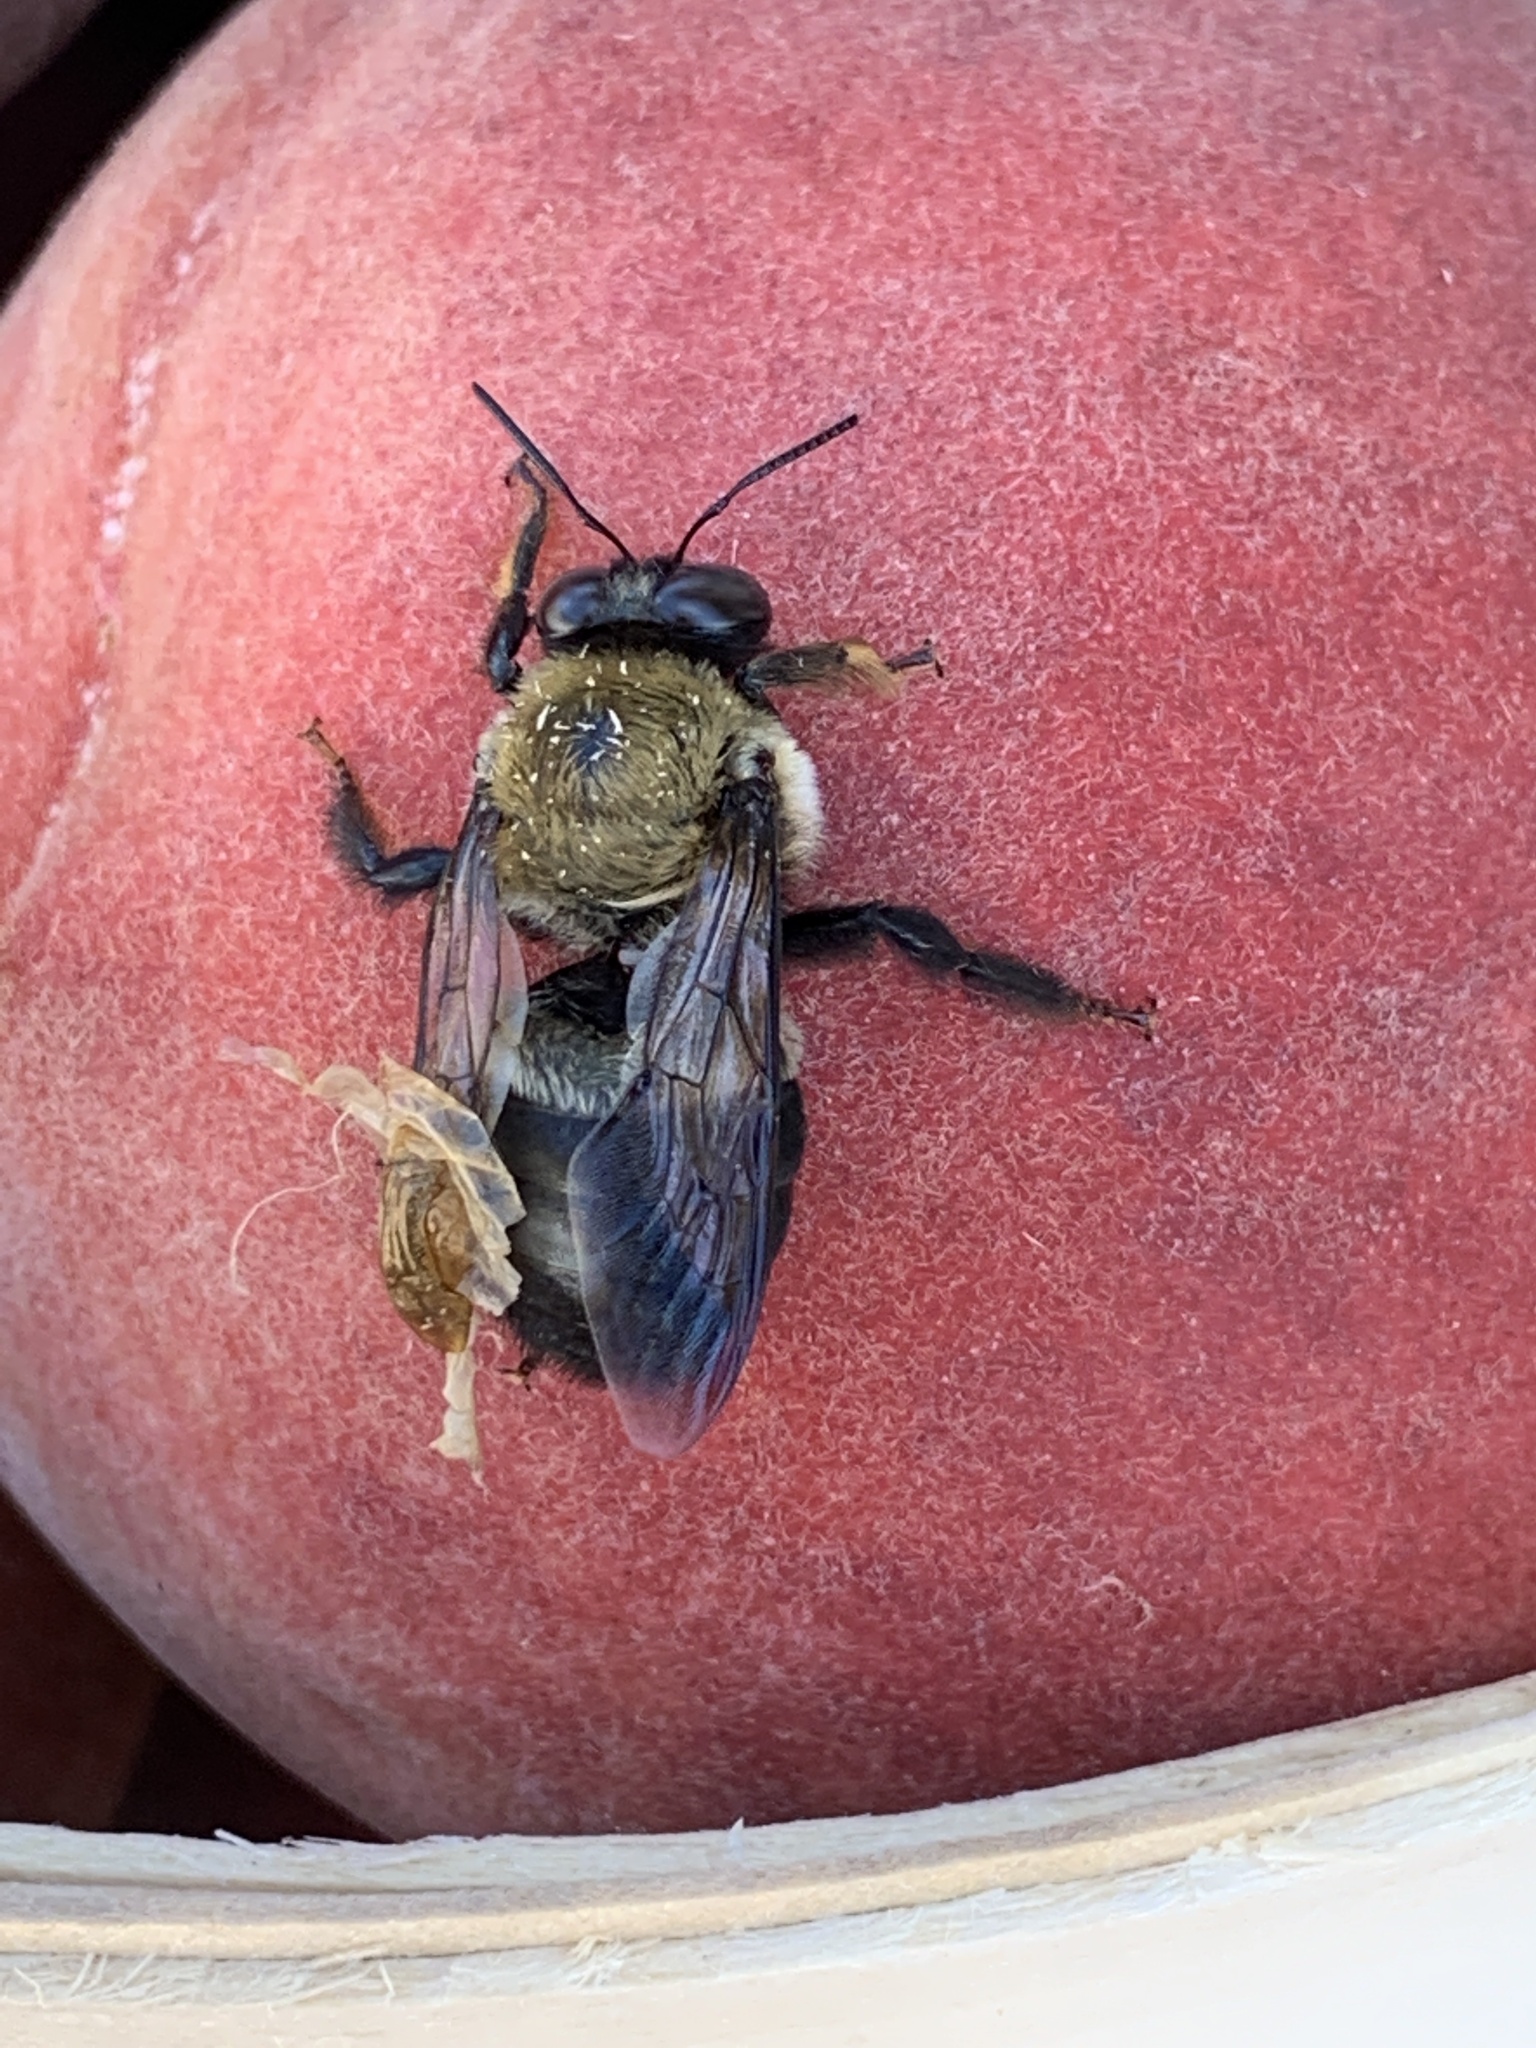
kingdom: Animalia
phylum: Arthropoda
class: Insecta
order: Hymenoptera
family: Apidae
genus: Xylocopa
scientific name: Xylocopa virginica
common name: Carpenter bee
